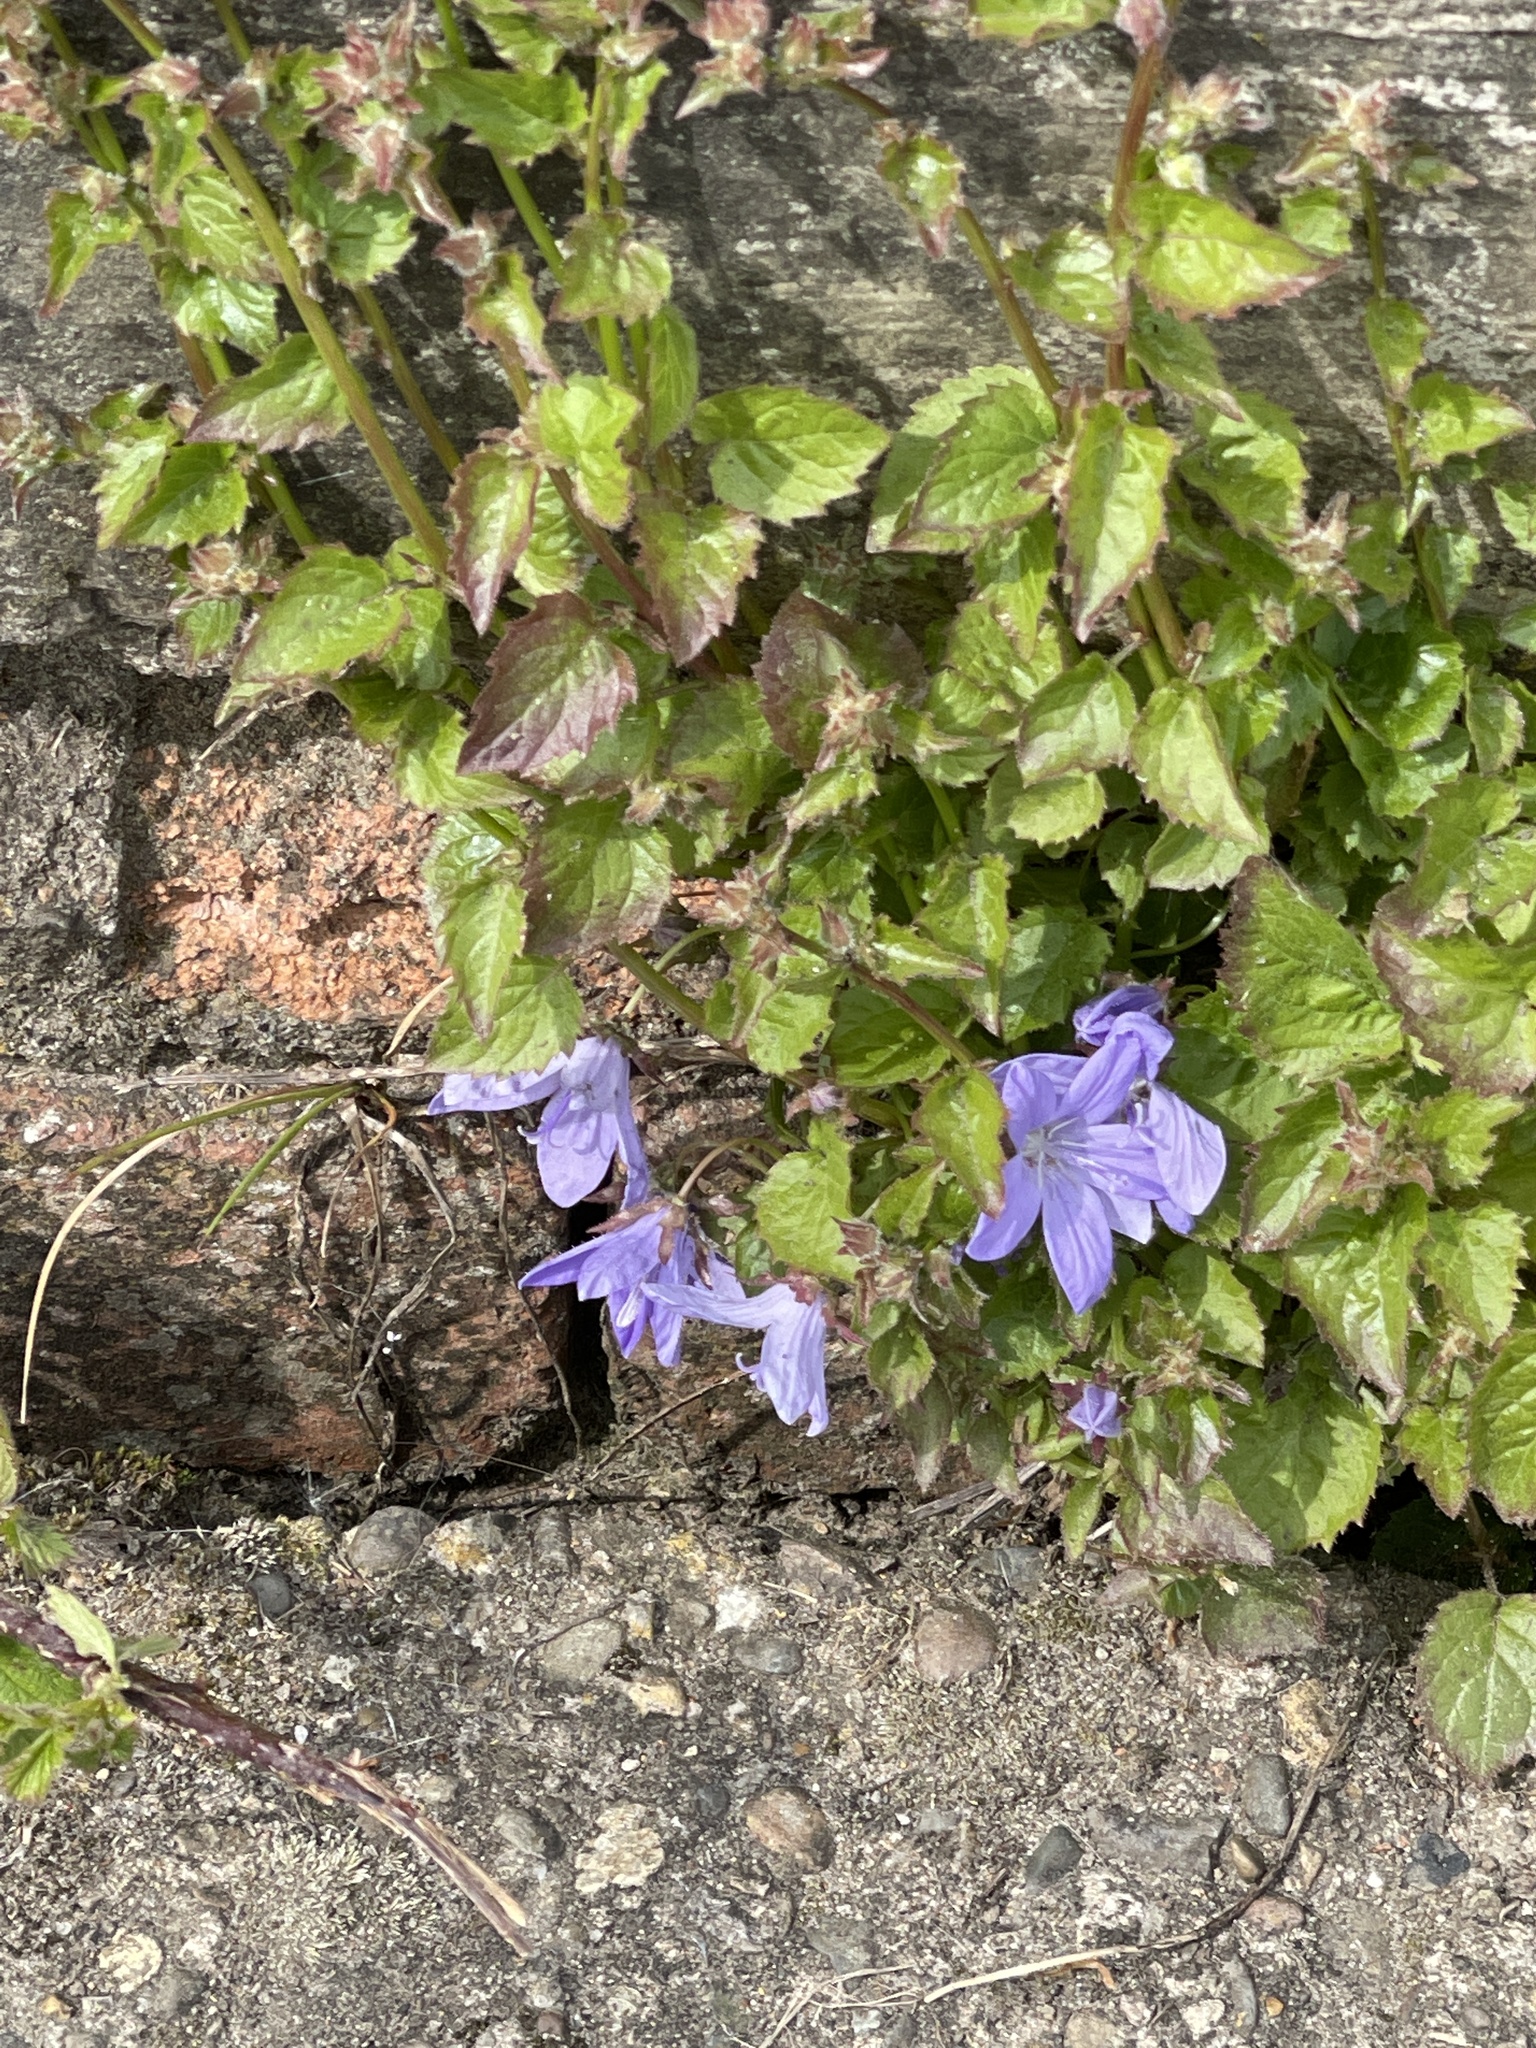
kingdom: Plantae
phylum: Tracheophyta
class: Magnoliopsida
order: Asterales
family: Campanulaceae
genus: Campanula
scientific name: Campanula poscharskyana
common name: Trailing bellflower
